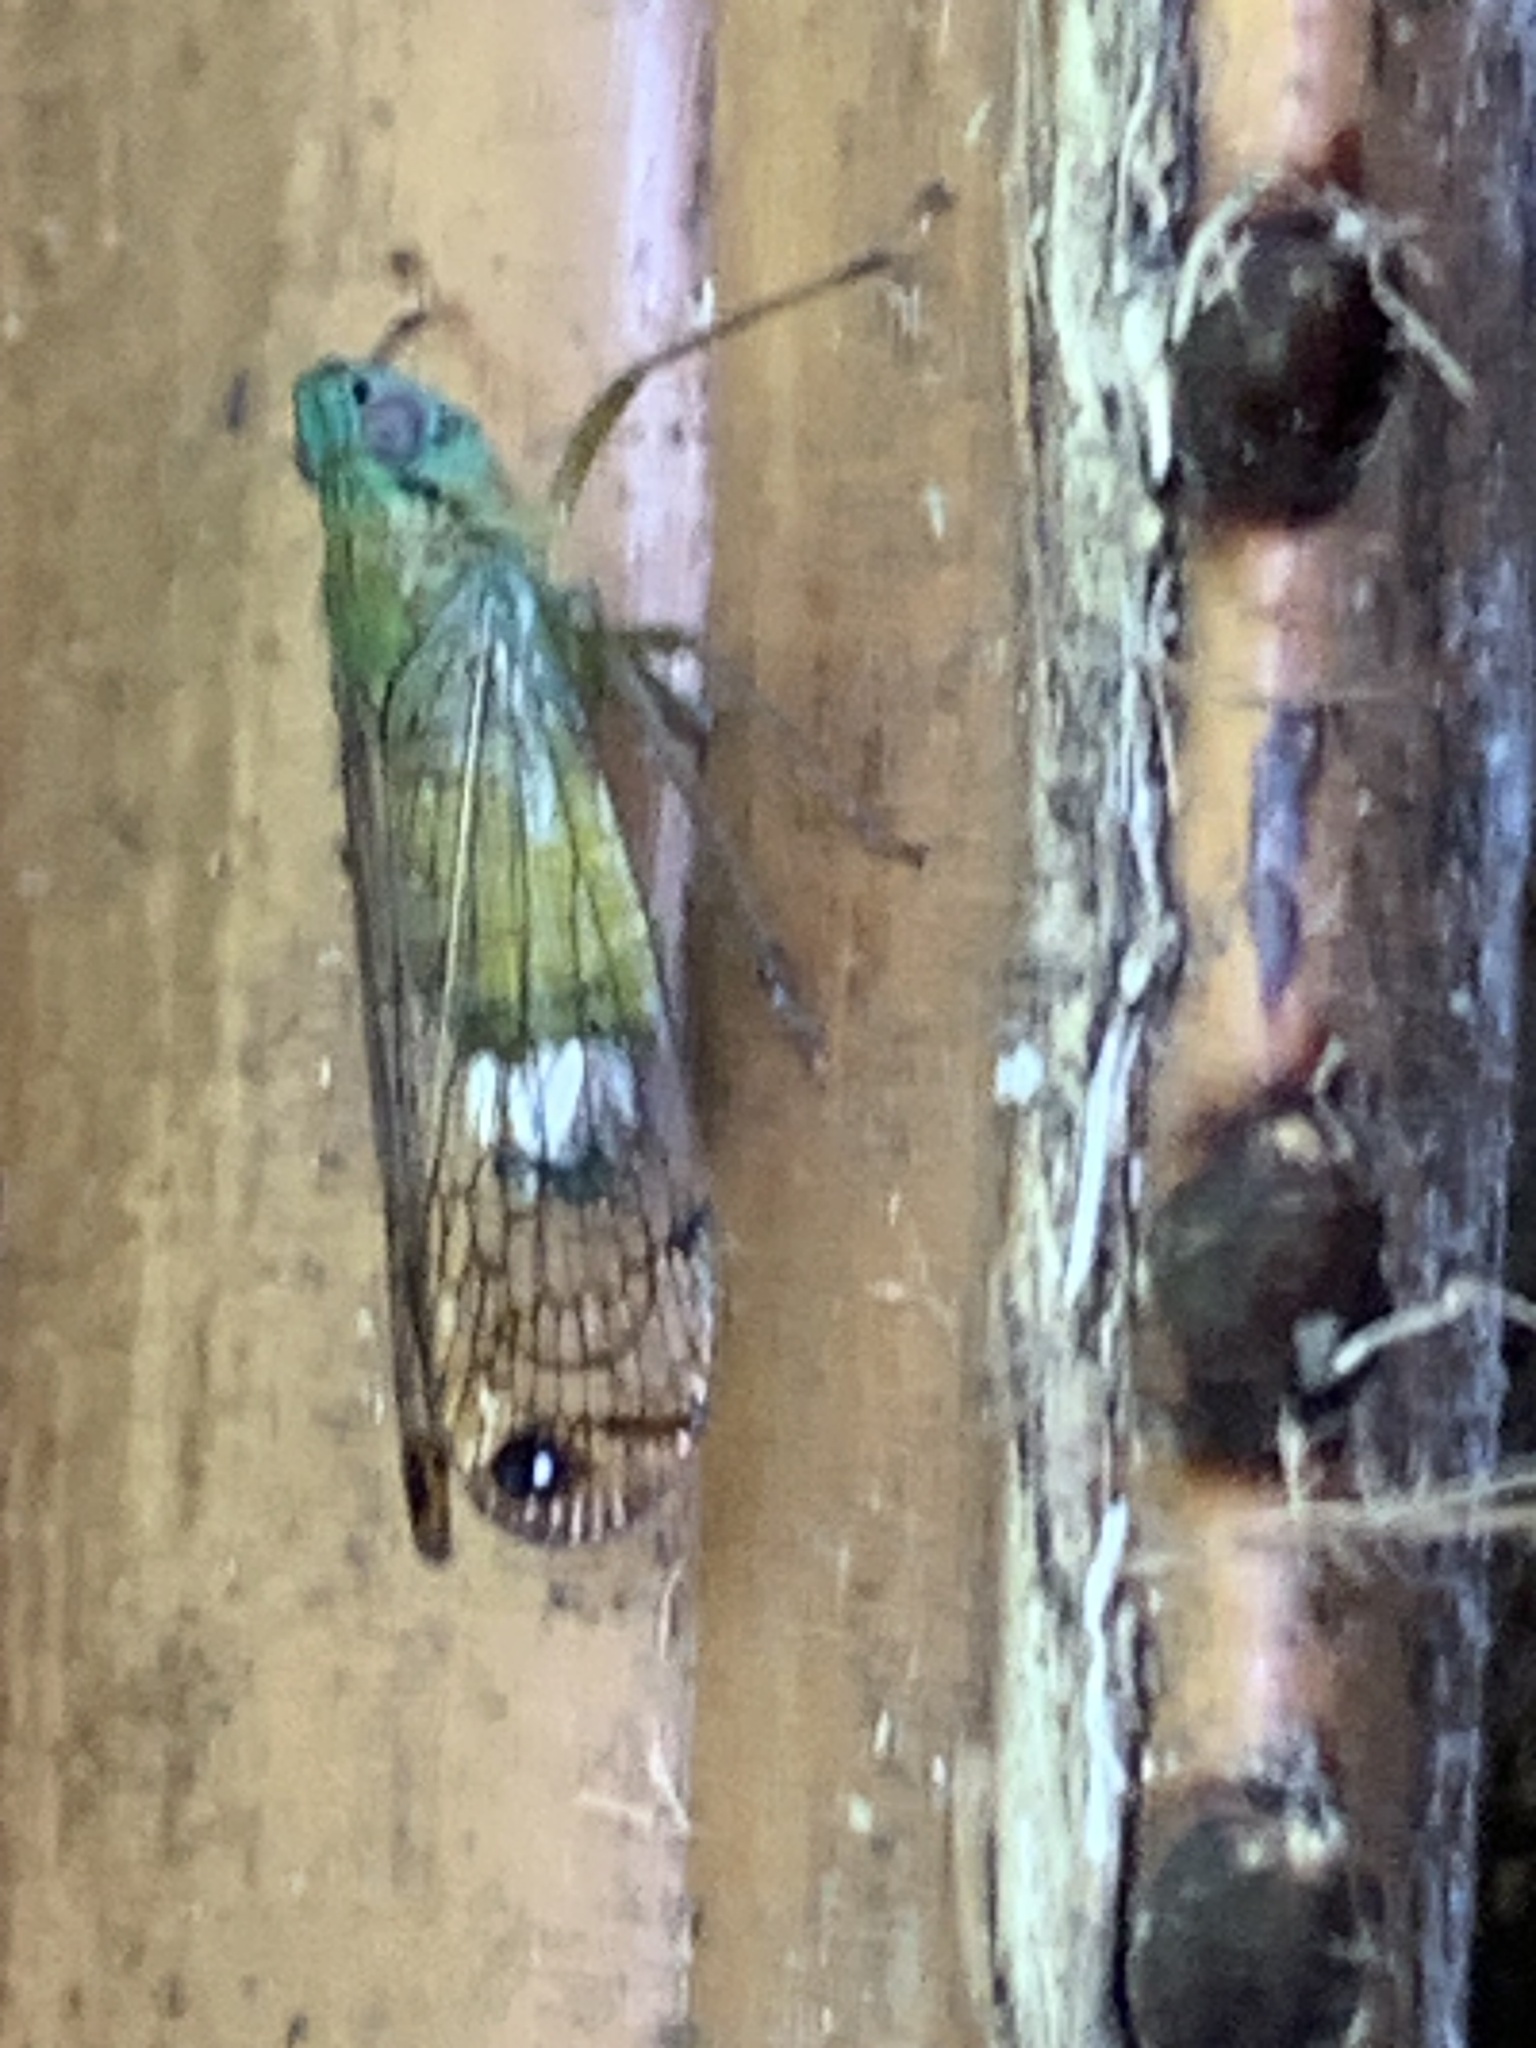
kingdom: Animalia
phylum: Arthropoda
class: Insecta
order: Hemiptera
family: Lophopidae
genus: Magia
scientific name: Magia subocellata
